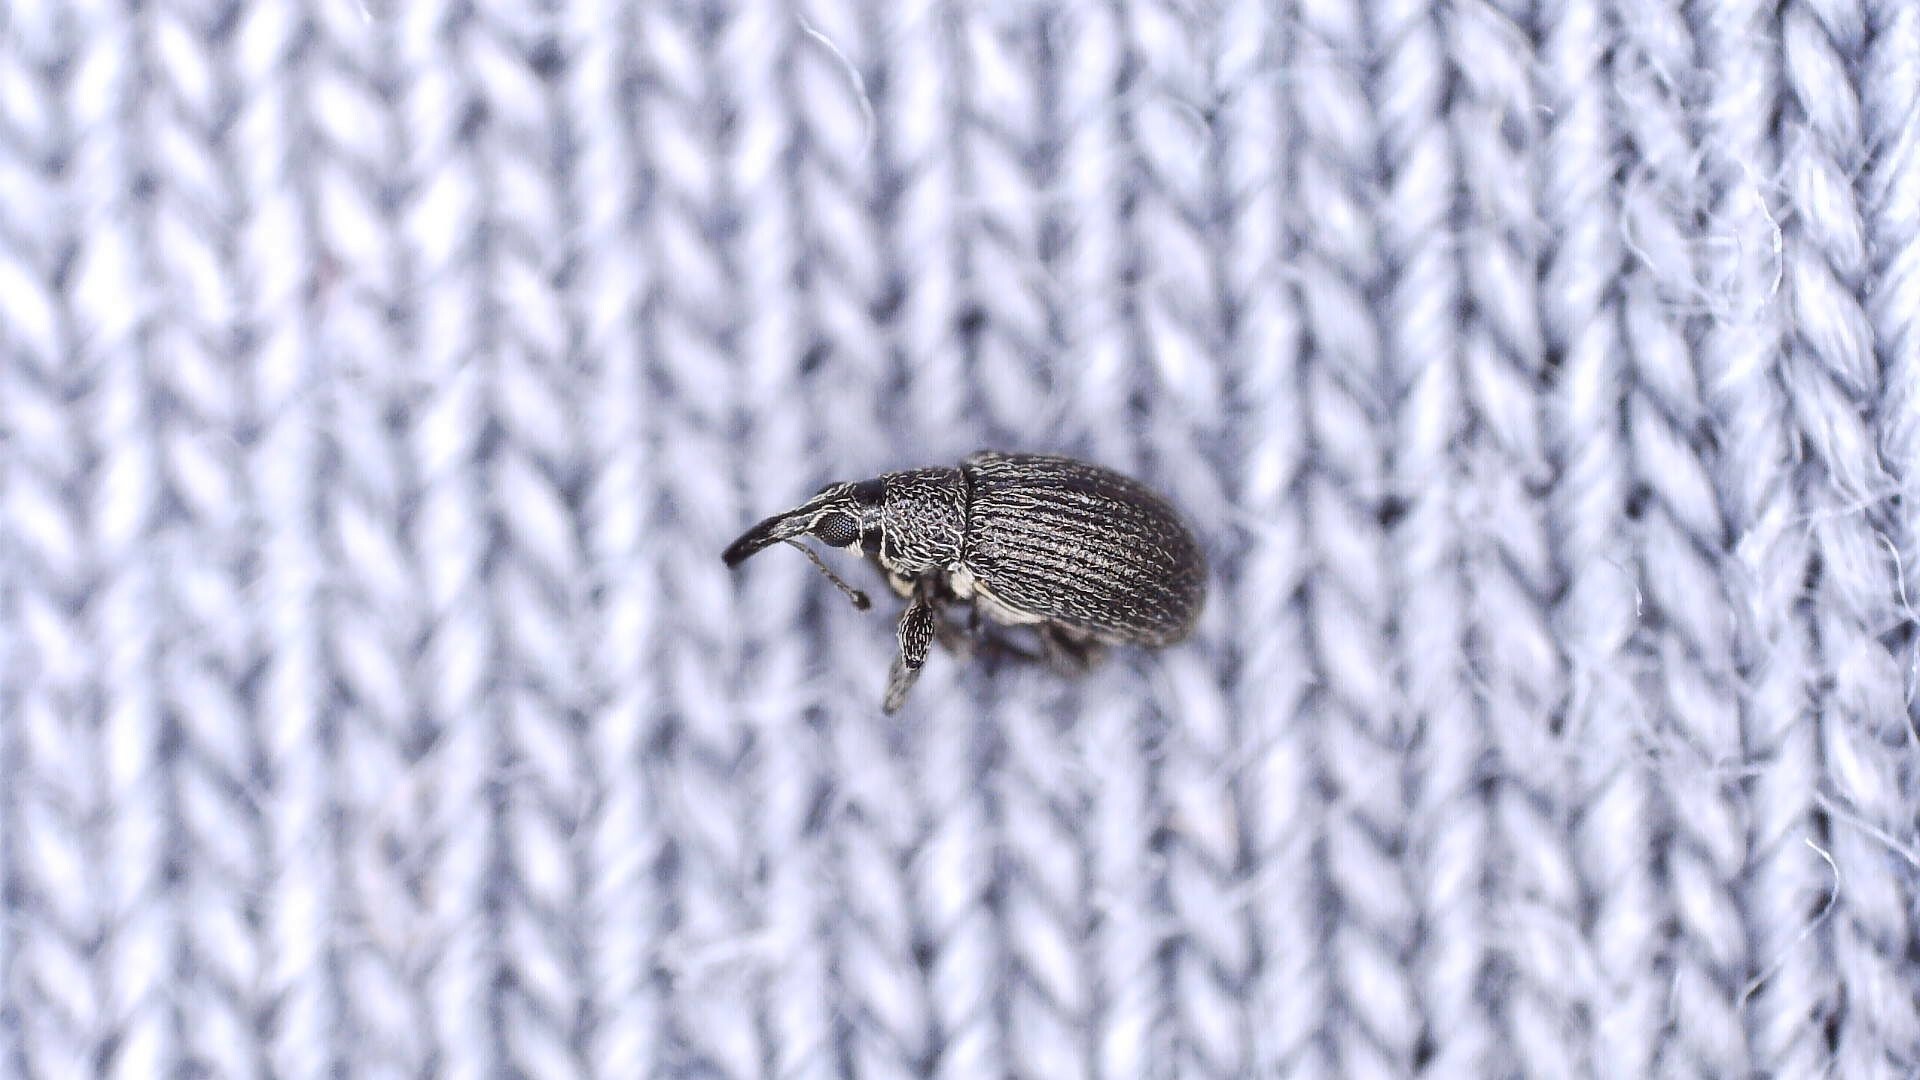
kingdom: Animalia
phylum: Arthropoda
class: Insecta
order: Coleoptera
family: Brentidae
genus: Betulapion
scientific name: Betulapion simile
